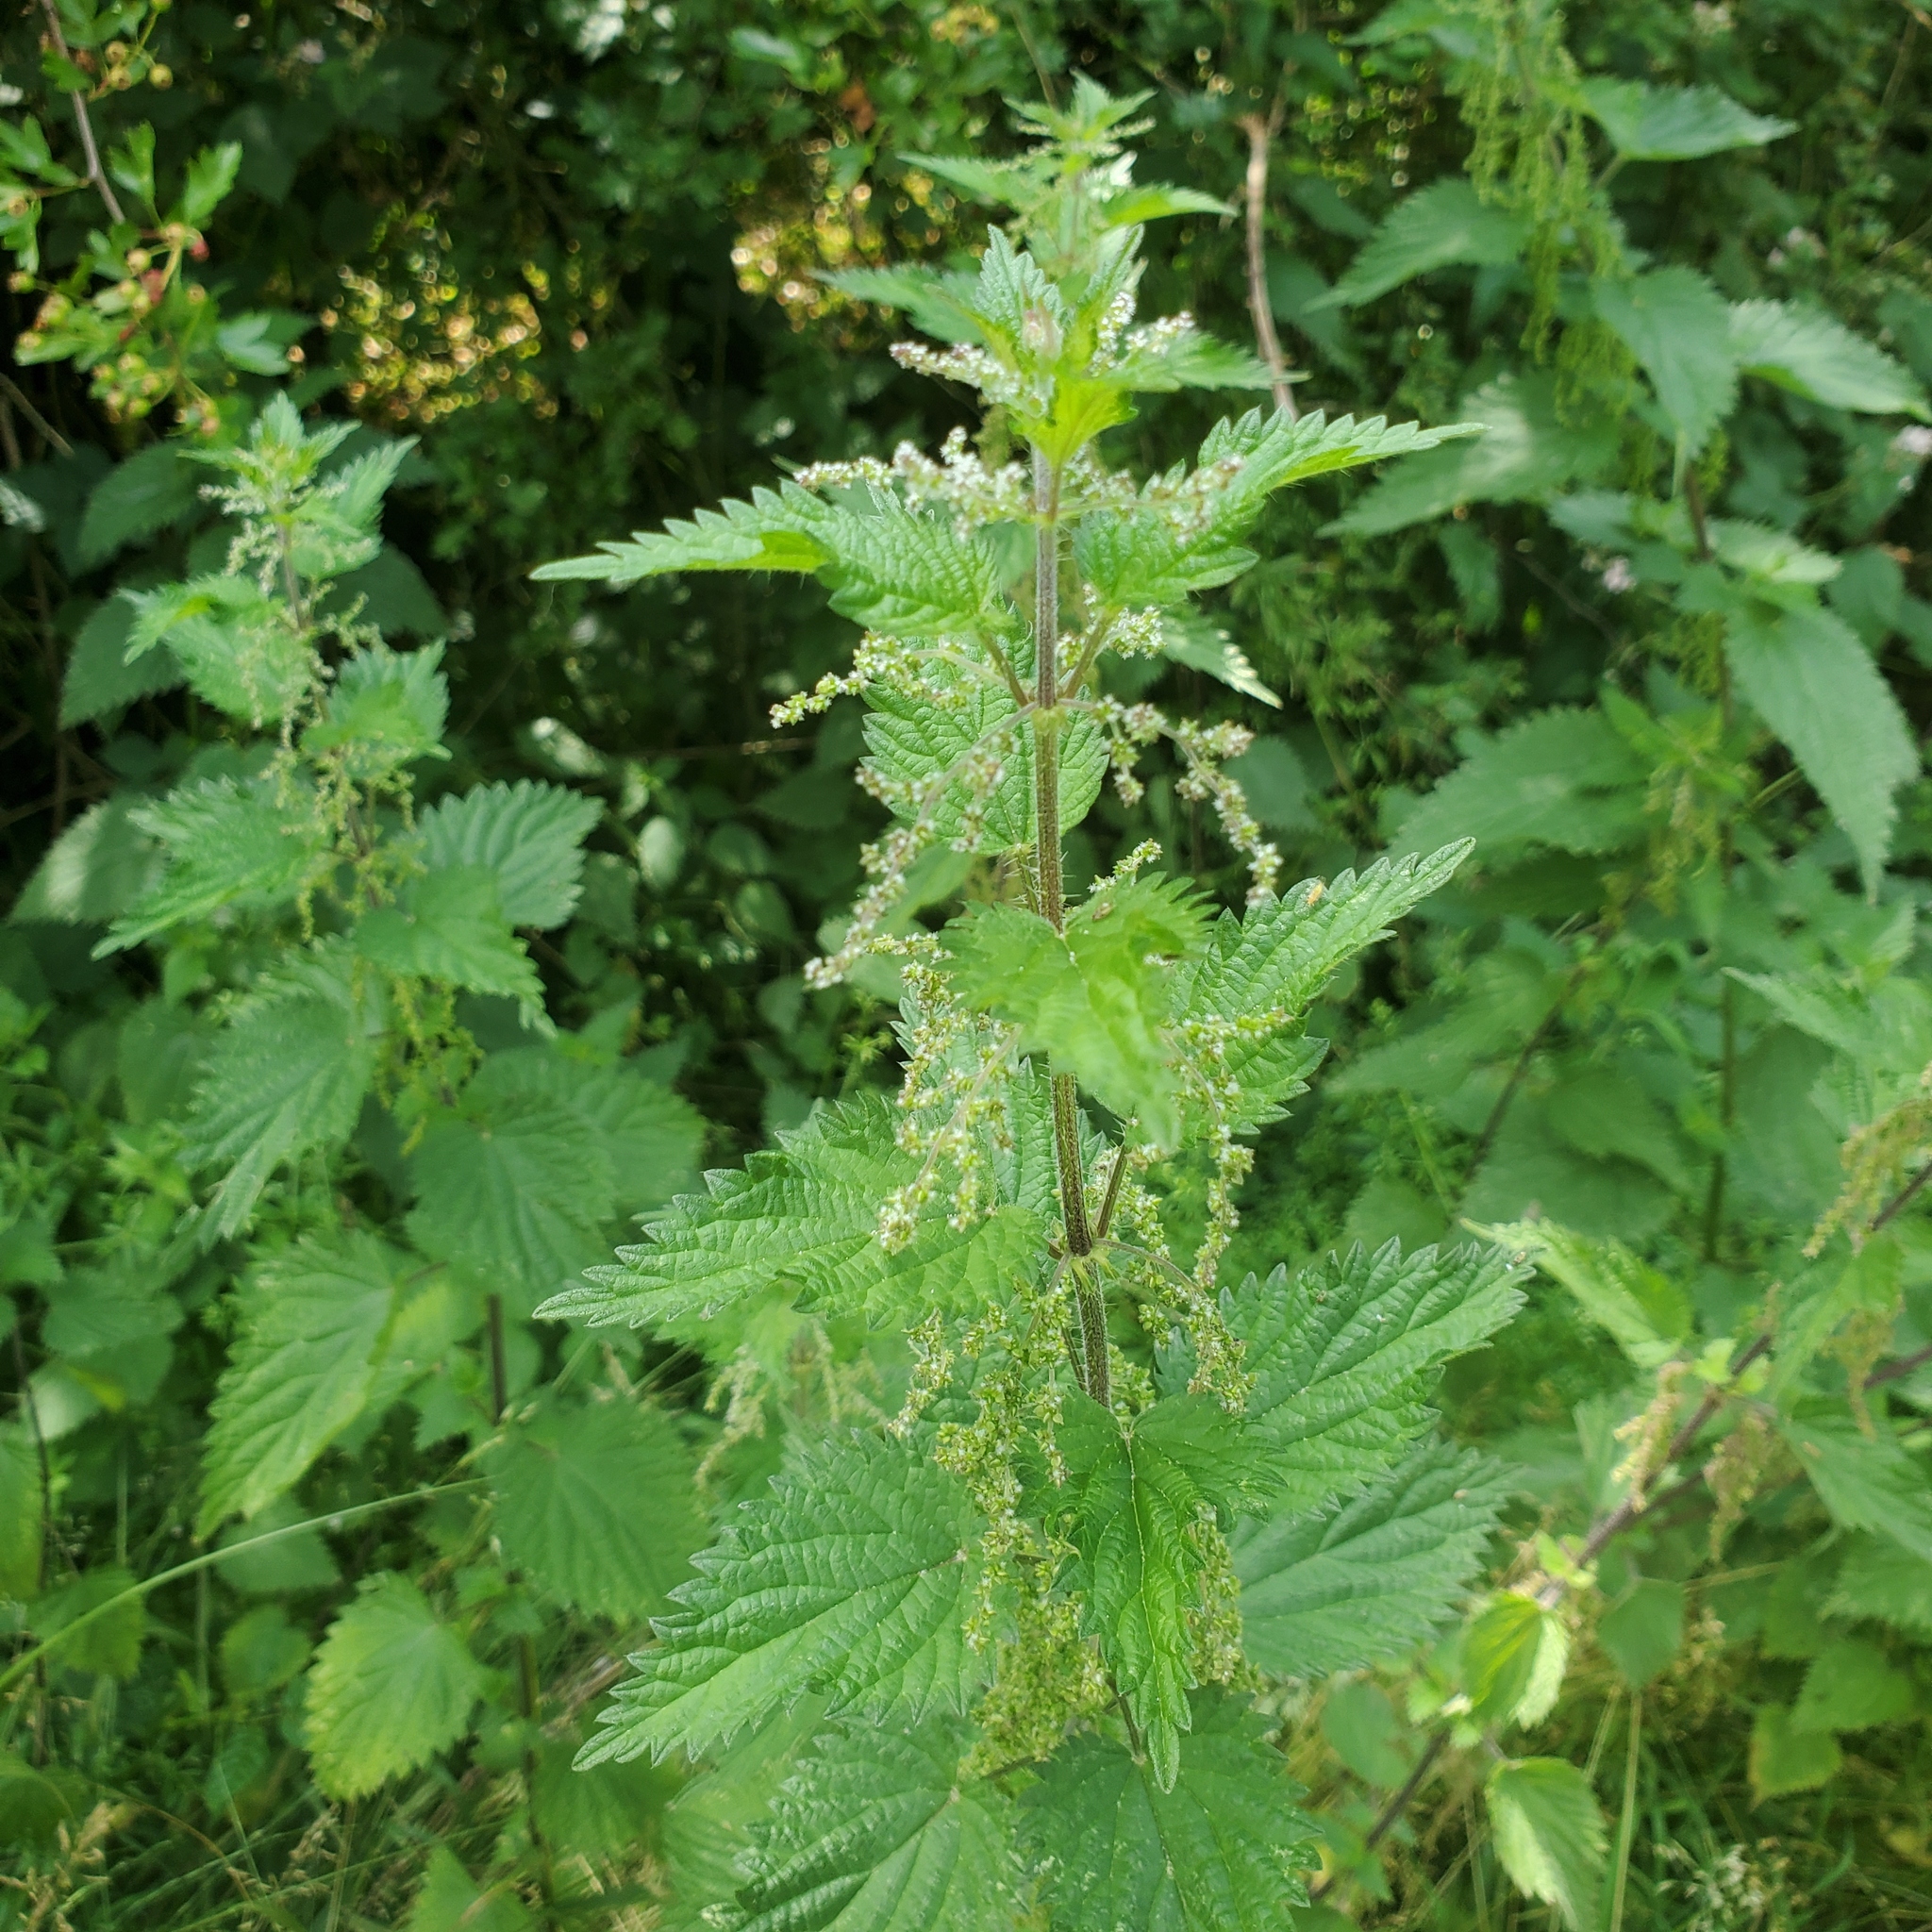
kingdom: Plantae
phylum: Tracheophyta
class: Magnoliopsida
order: Rosales
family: Urticaceae
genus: Urtica
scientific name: Urtica dioica
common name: Common nettle
